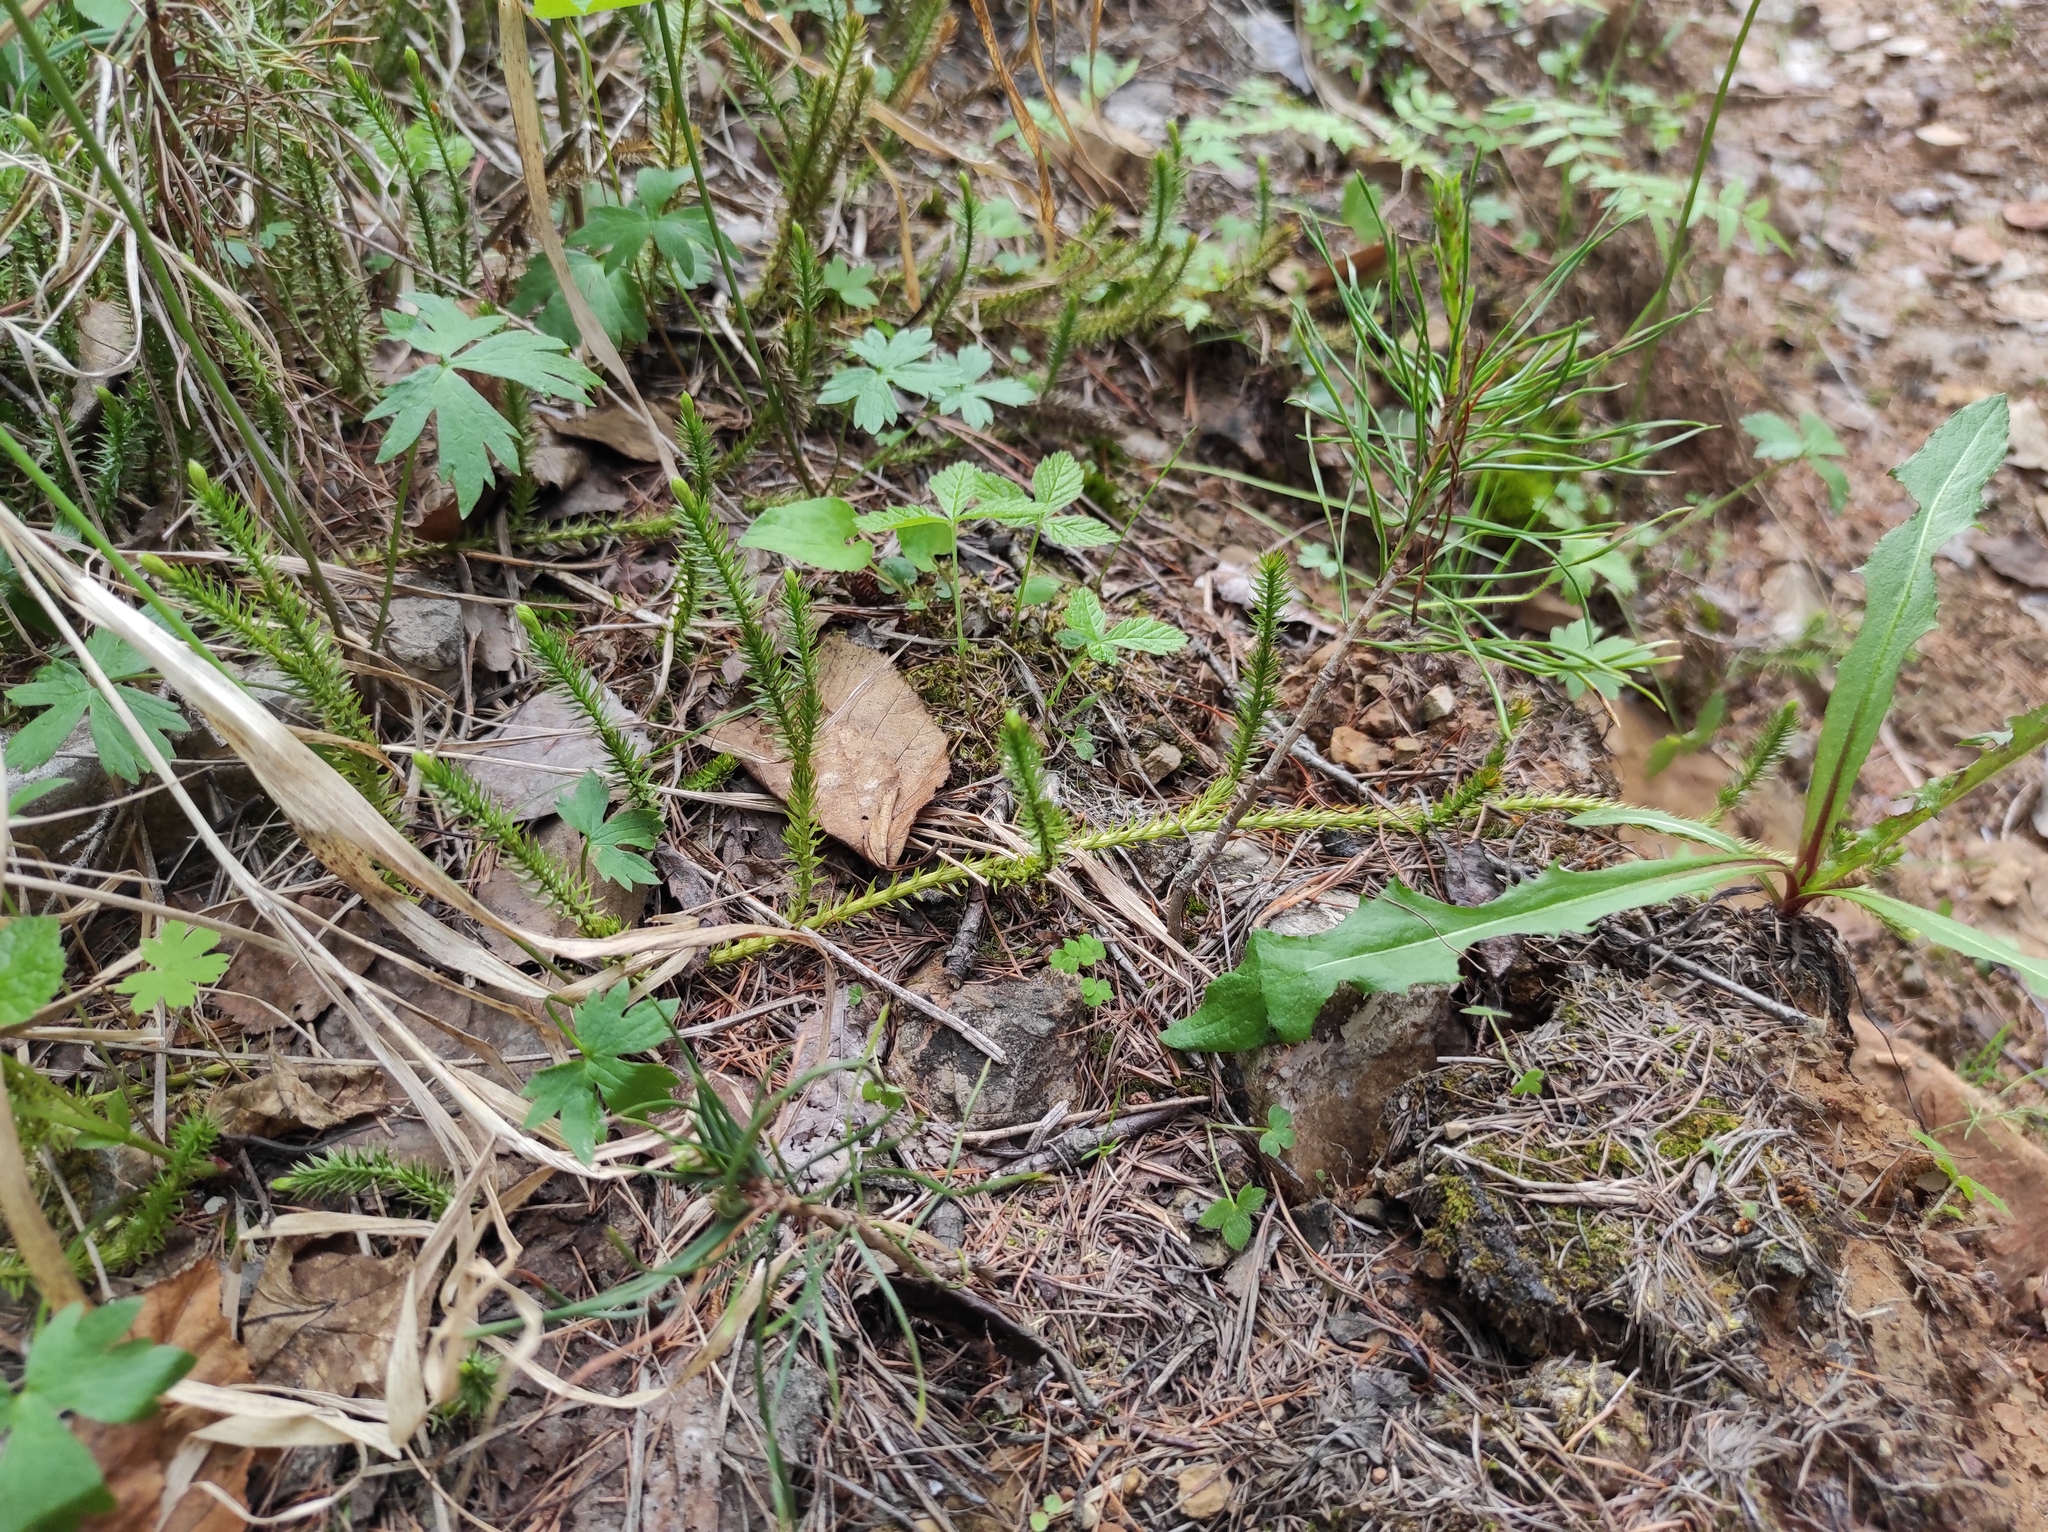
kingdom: Plantae
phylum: Tracheophyta
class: Magnoliopsida
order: Rosales
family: Rosaceae
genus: Rubus
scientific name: Rubus saxatilis
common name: Stone bramble
